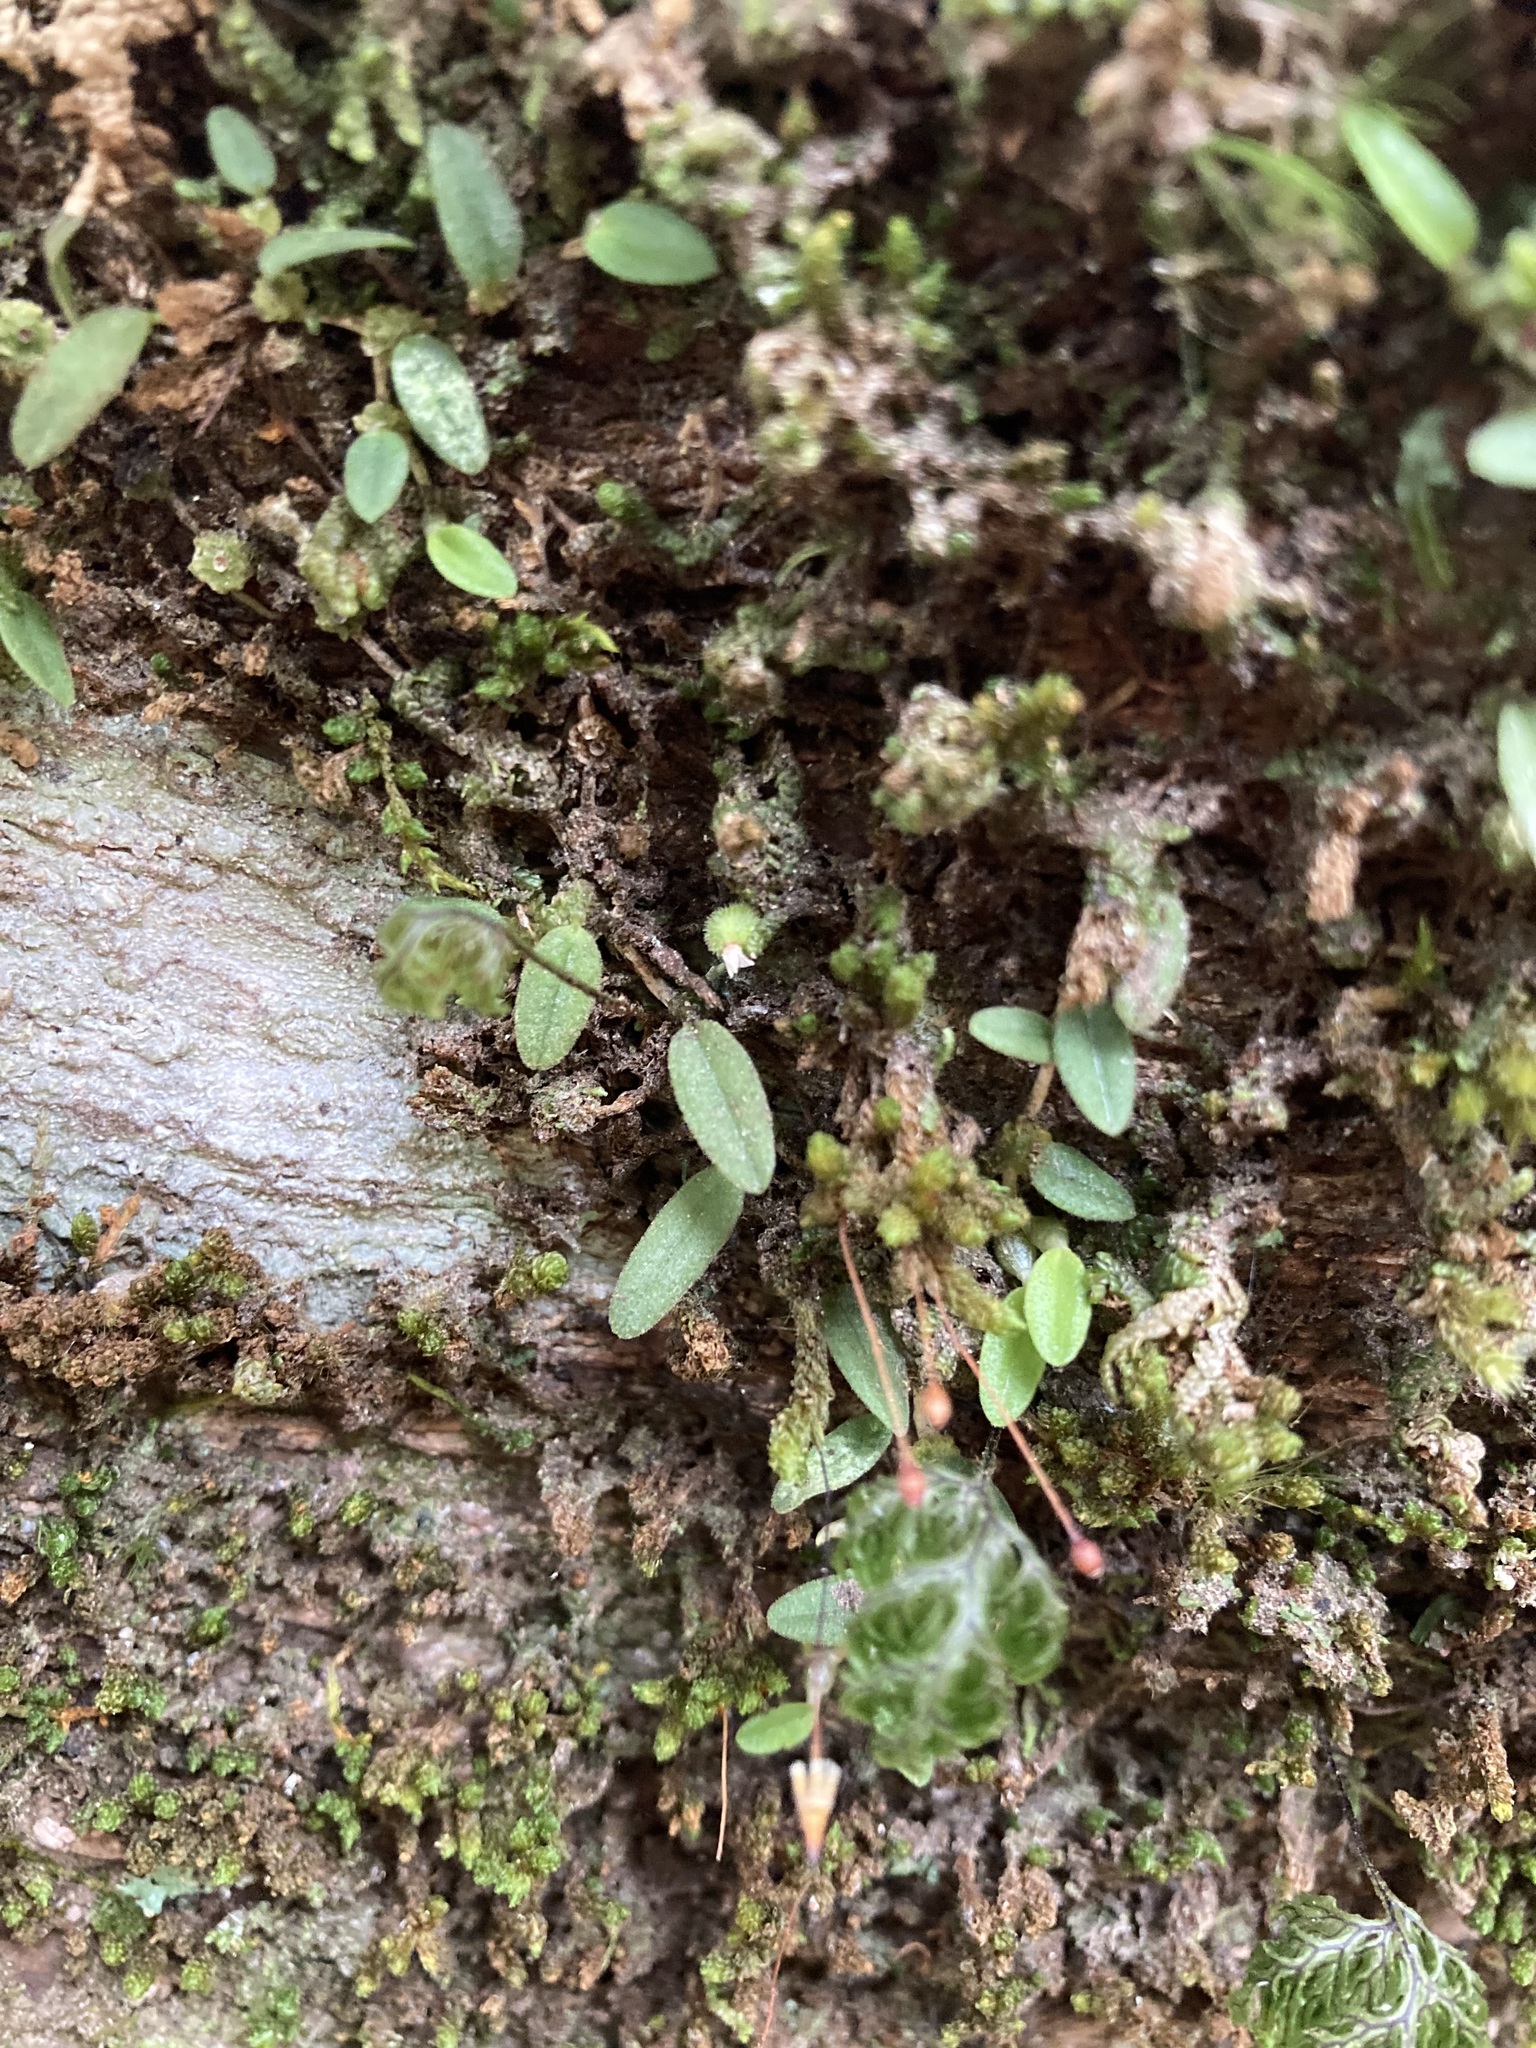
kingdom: Plantae
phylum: Tracheophyta
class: Liliopsida
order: Asparagales
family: Orchidaceae
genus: Bulbophyllum
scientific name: Bulbophyllum pygmaeum
